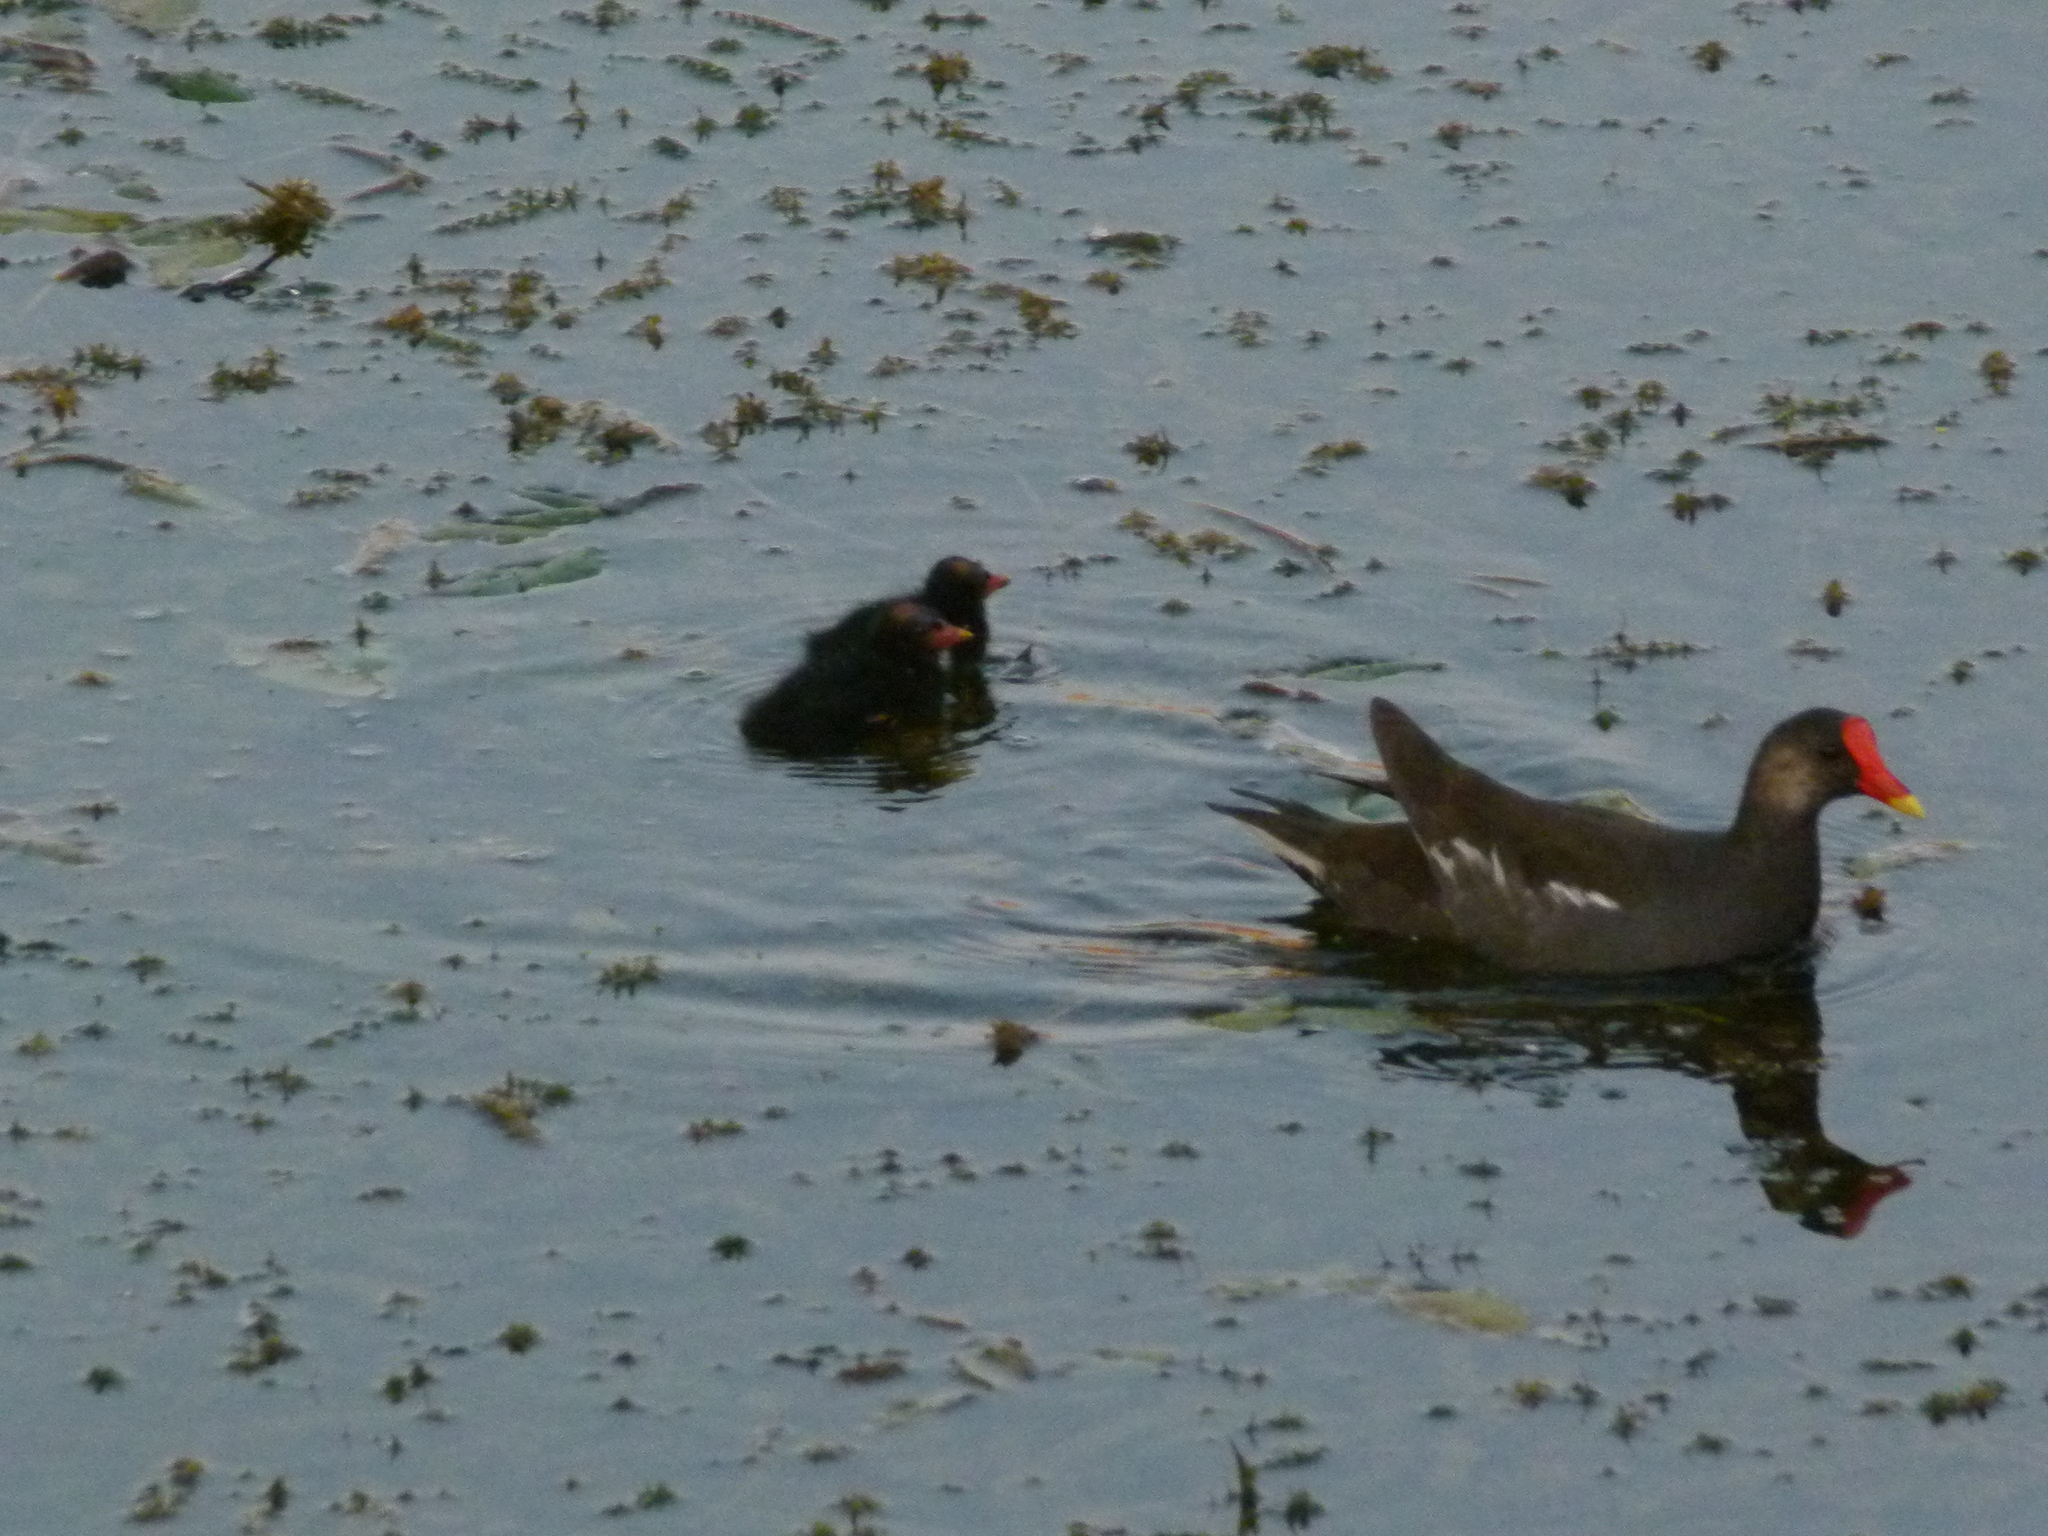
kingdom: Animalia
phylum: Chordata
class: Aves
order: Gruiformes
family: Rallidae
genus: Gallinula
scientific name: Gallinula chloropus
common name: Common moorhen
